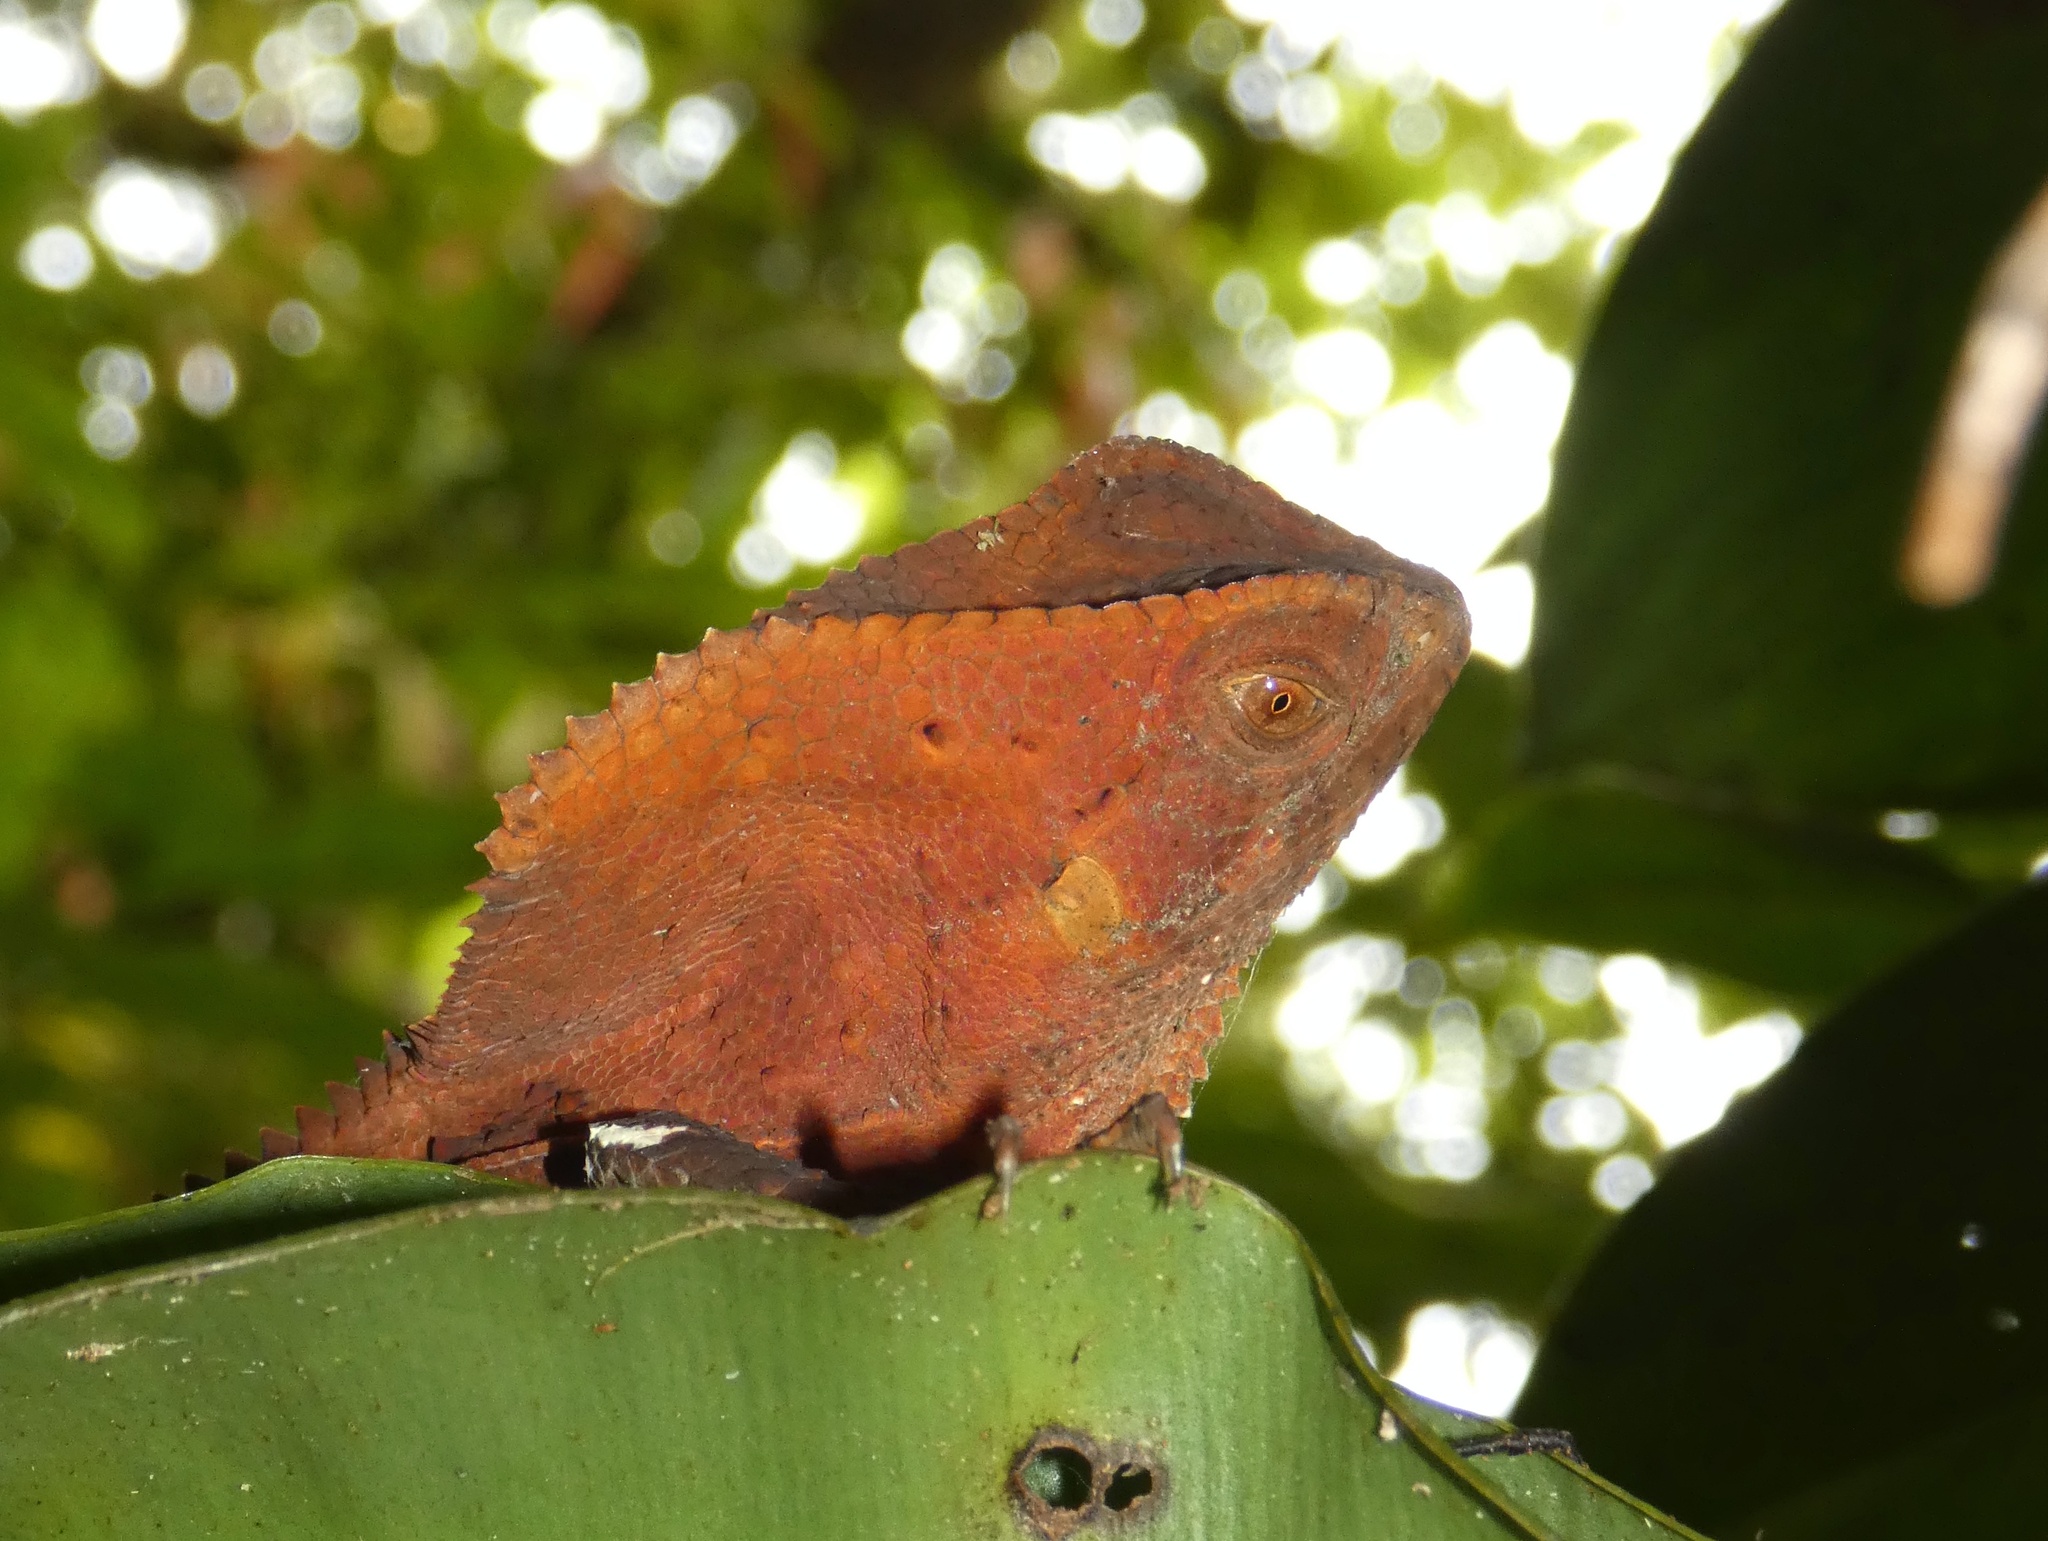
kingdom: Animalia
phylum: Chordata
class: Squamata
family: Corytophanidae
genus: Corytophanes
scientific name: Corytophanes cristatus
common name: Smooth helmeted iguana
